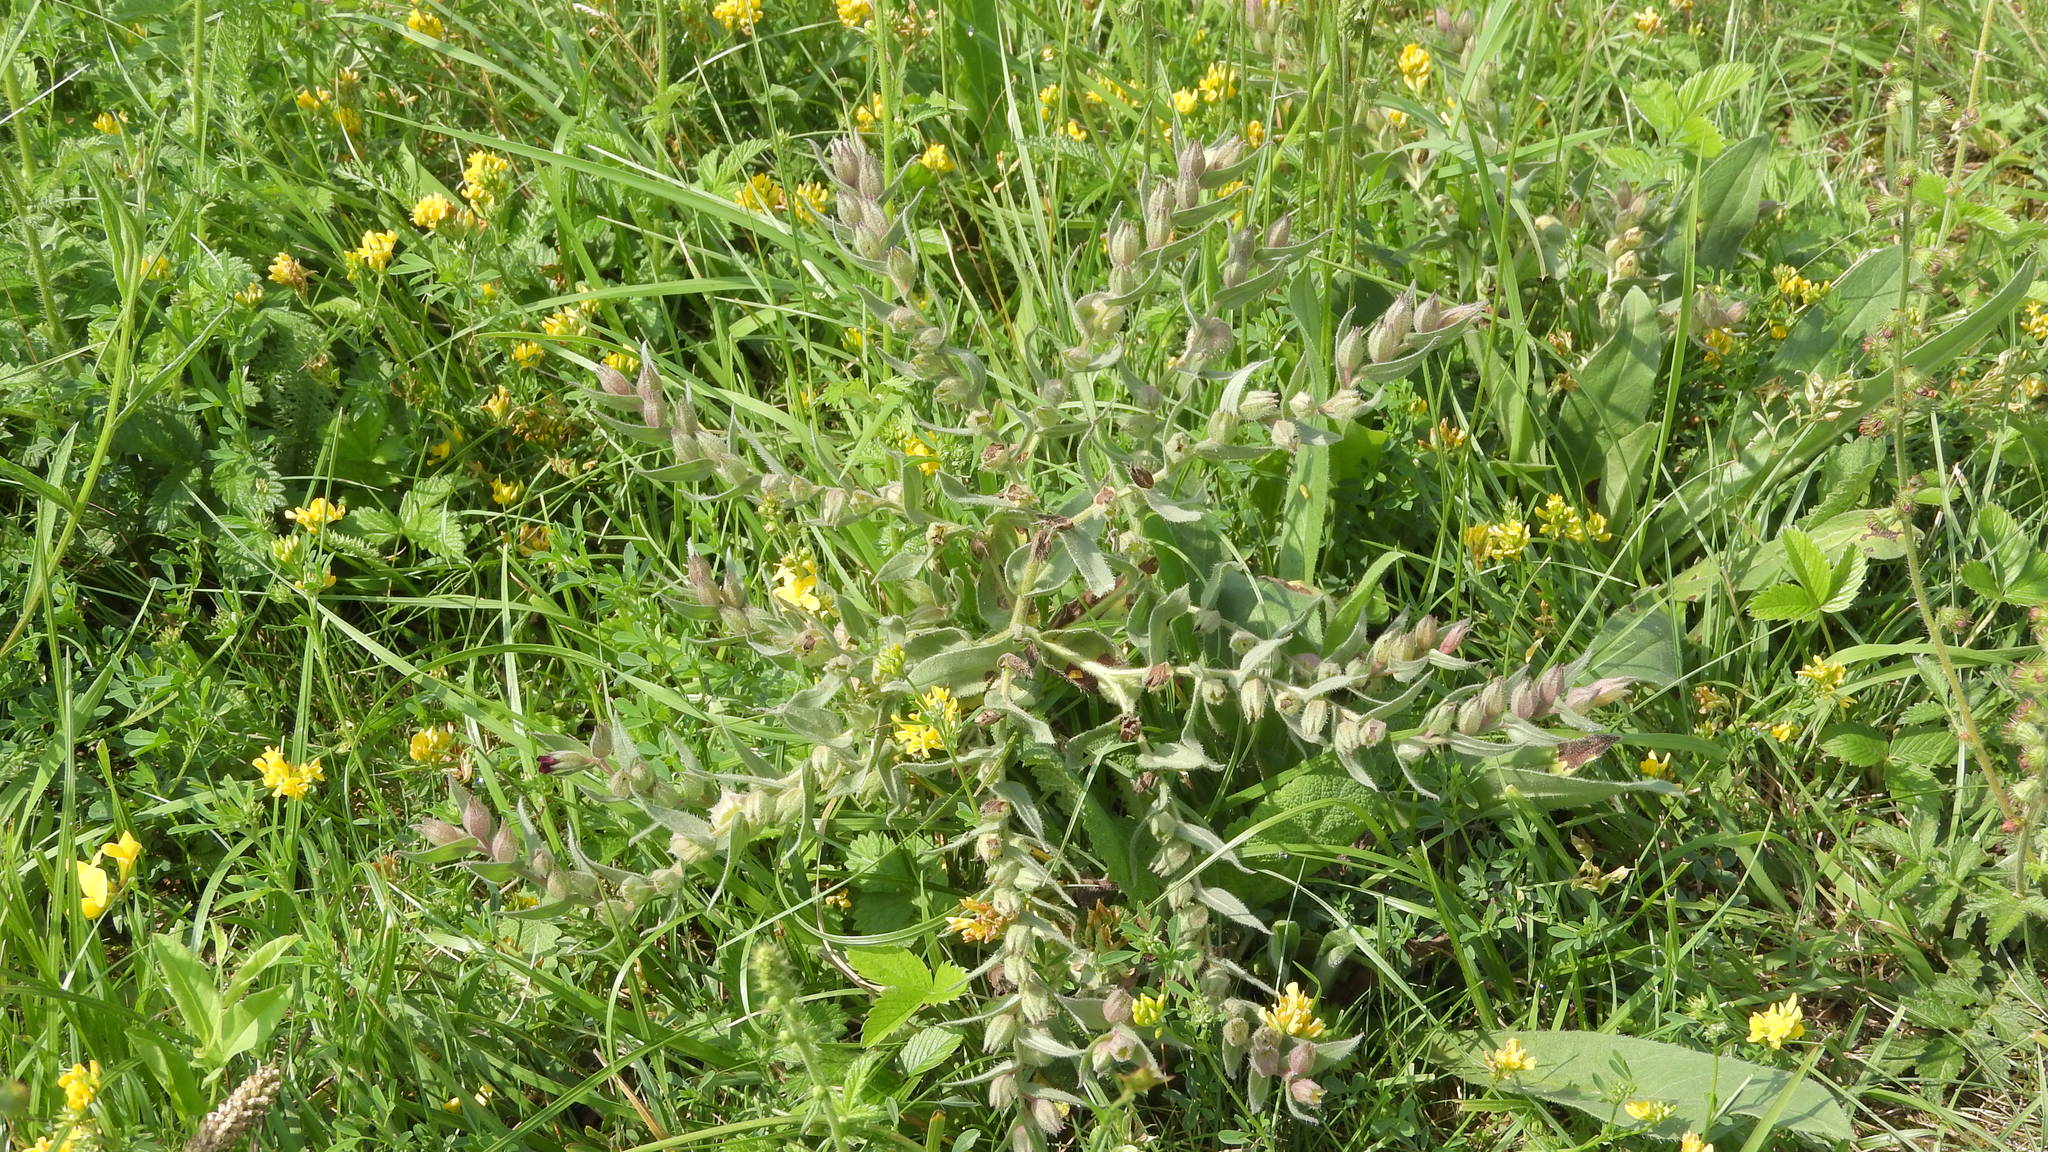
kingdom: Plantae
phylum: Tracheophyta
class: Magnoliopsida
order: Boraginales
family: Boraginaceae
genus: Nonea
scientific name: Nonea pulla
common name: Brown nonea
